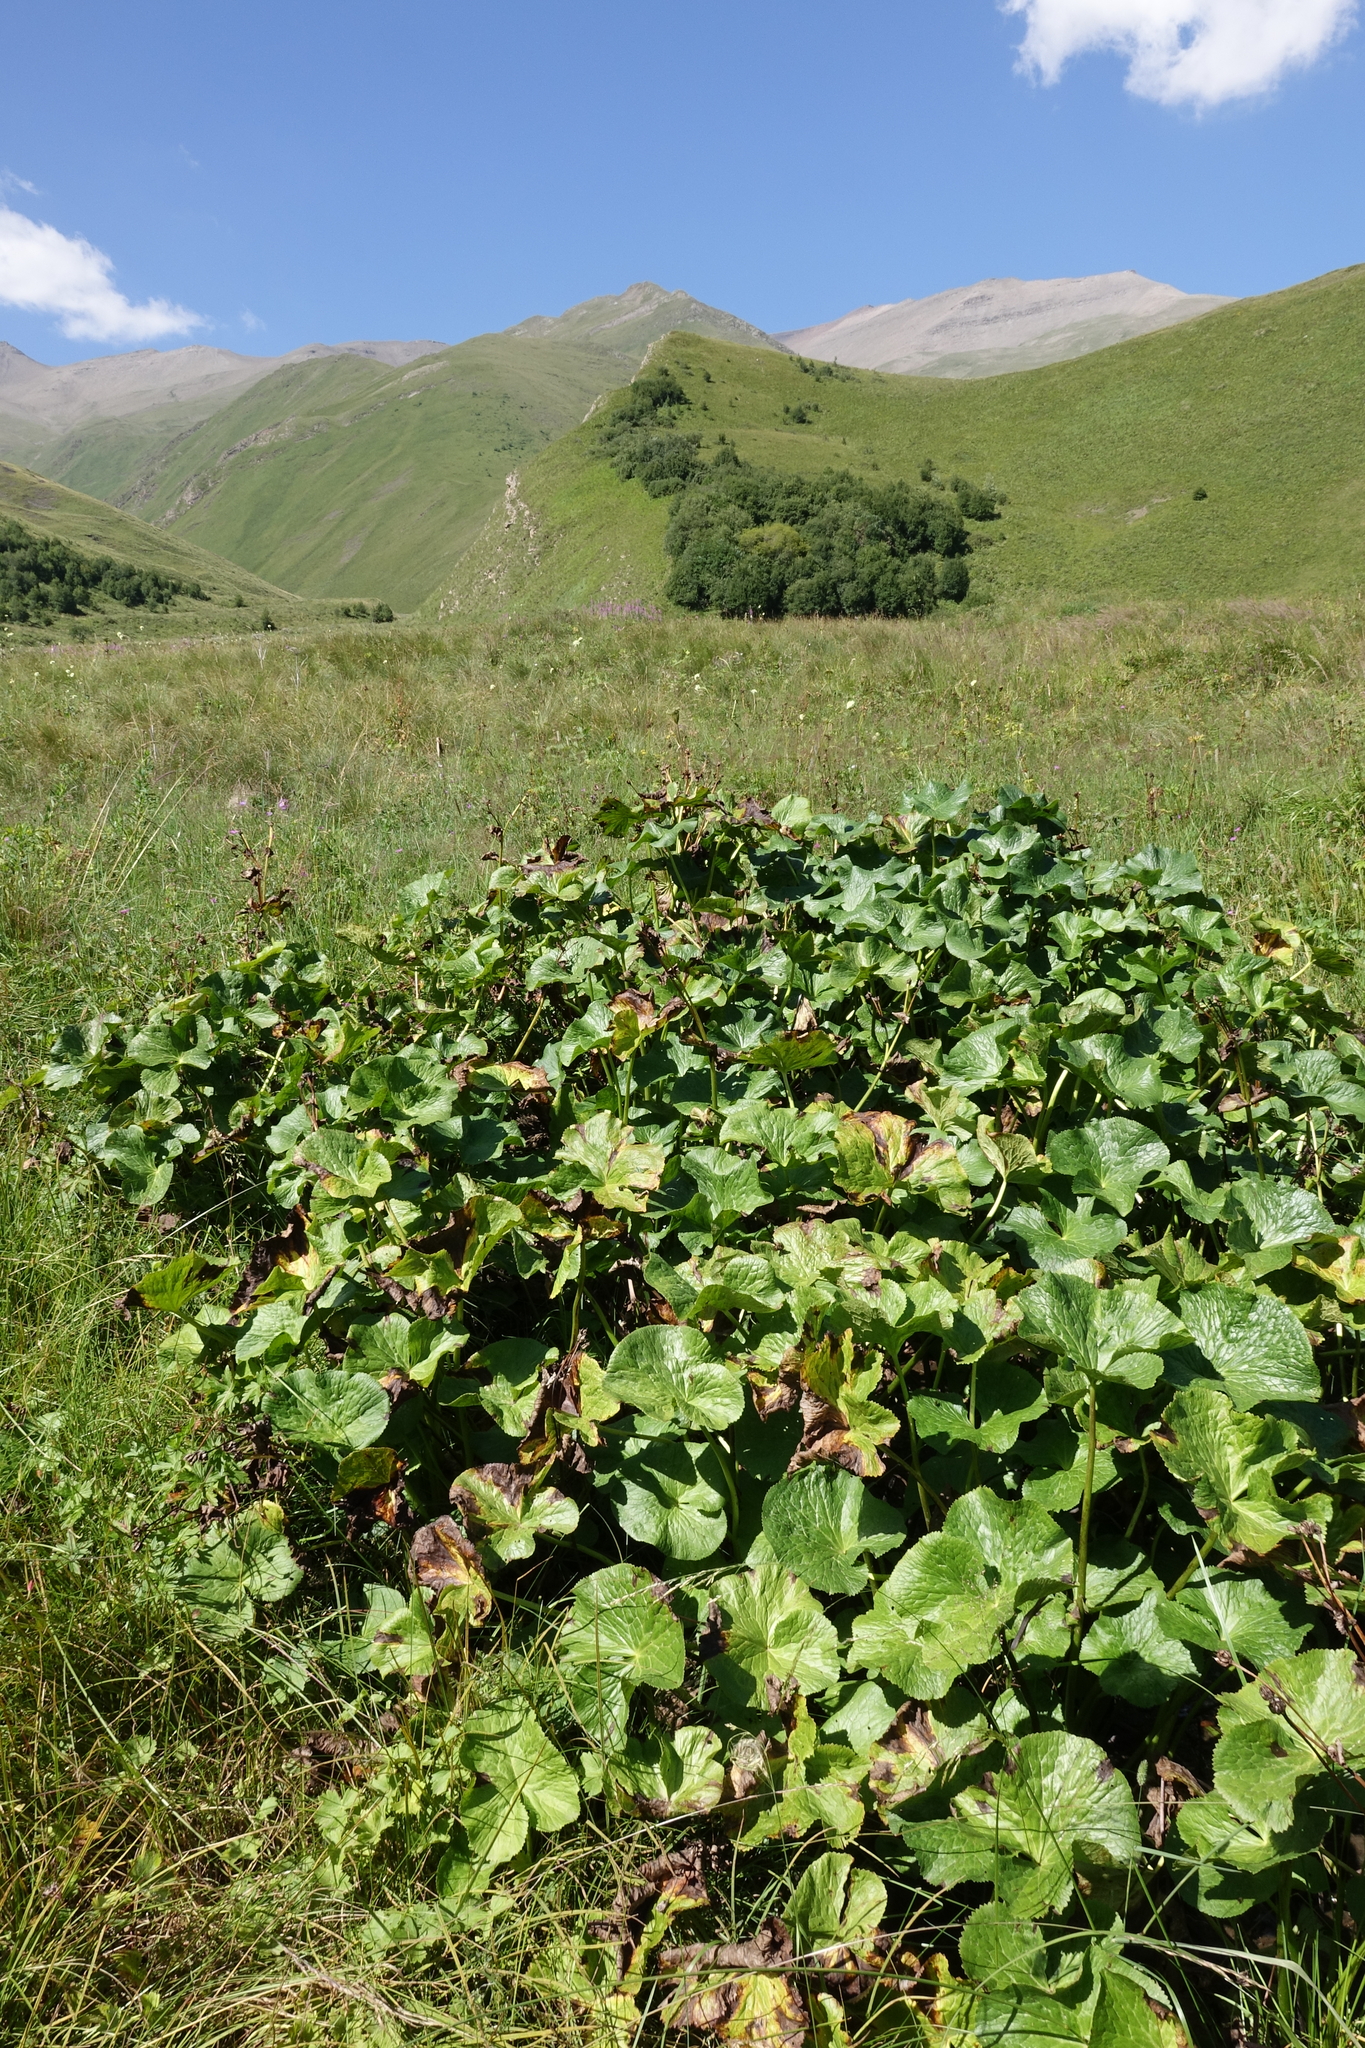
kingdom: Plantae
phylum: Tracheophyta
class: Magnoliopsida
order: Ranunculales
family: Ranunculaceae
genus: Caltha
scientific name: Caltha palustris
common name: Marsh marigold
